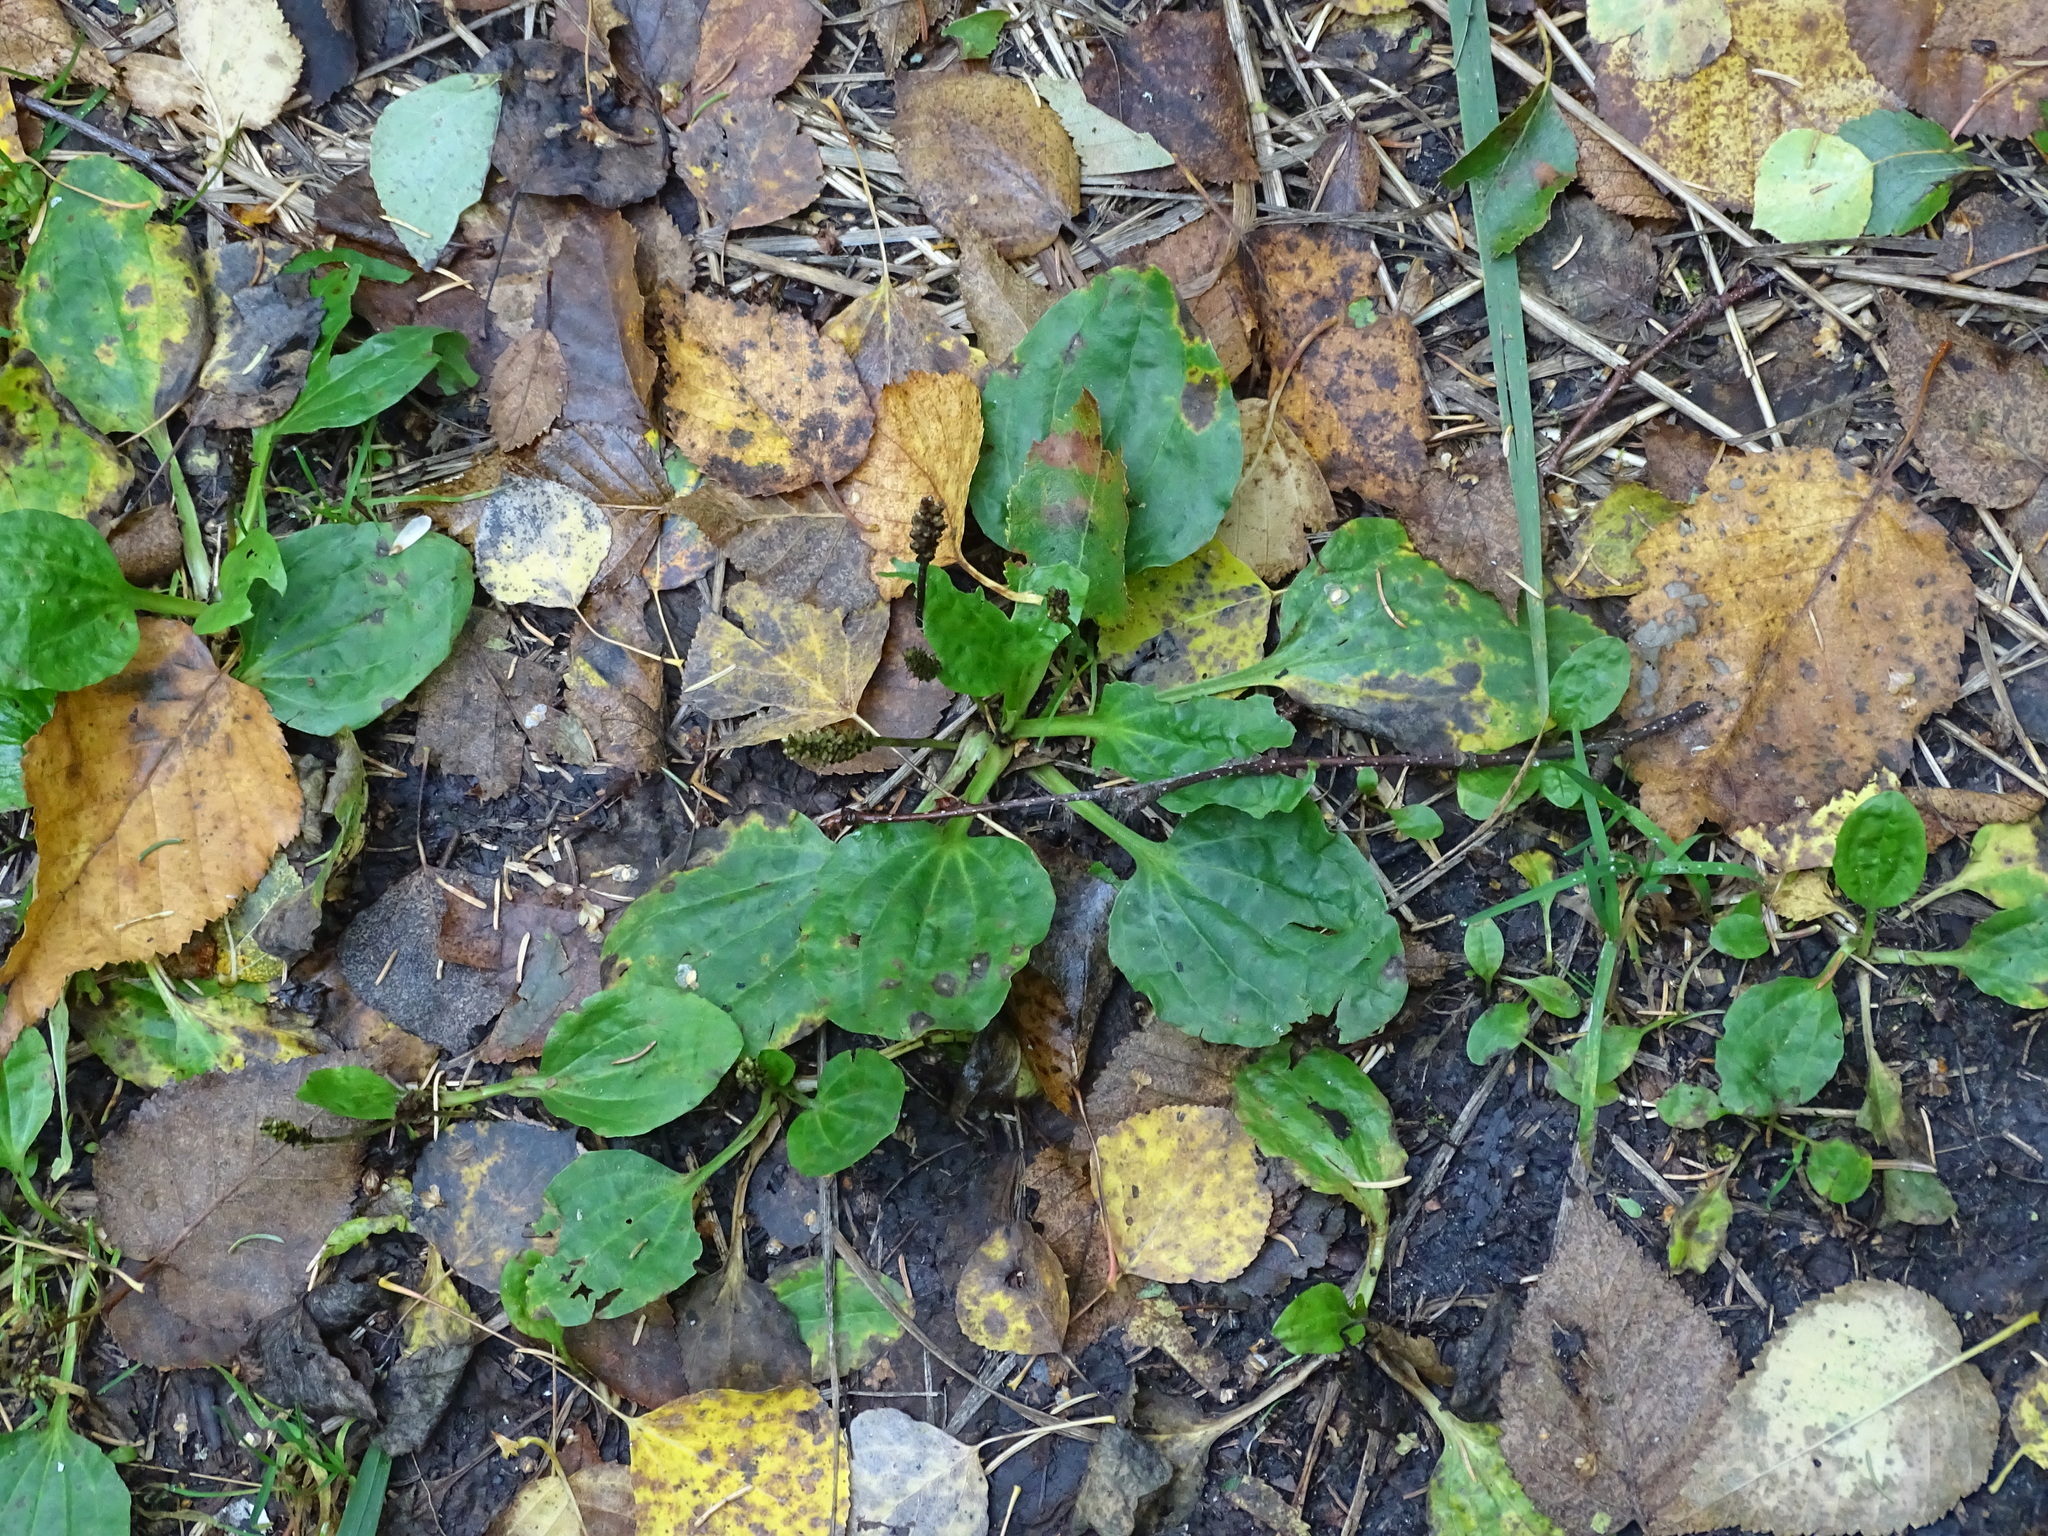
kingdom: Plantae
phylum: Tracheophyta
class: Magnoliopsida
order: Lamiales
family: Plantaginaceae
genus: Plantago
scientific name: Plantago major
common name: Common plantain
